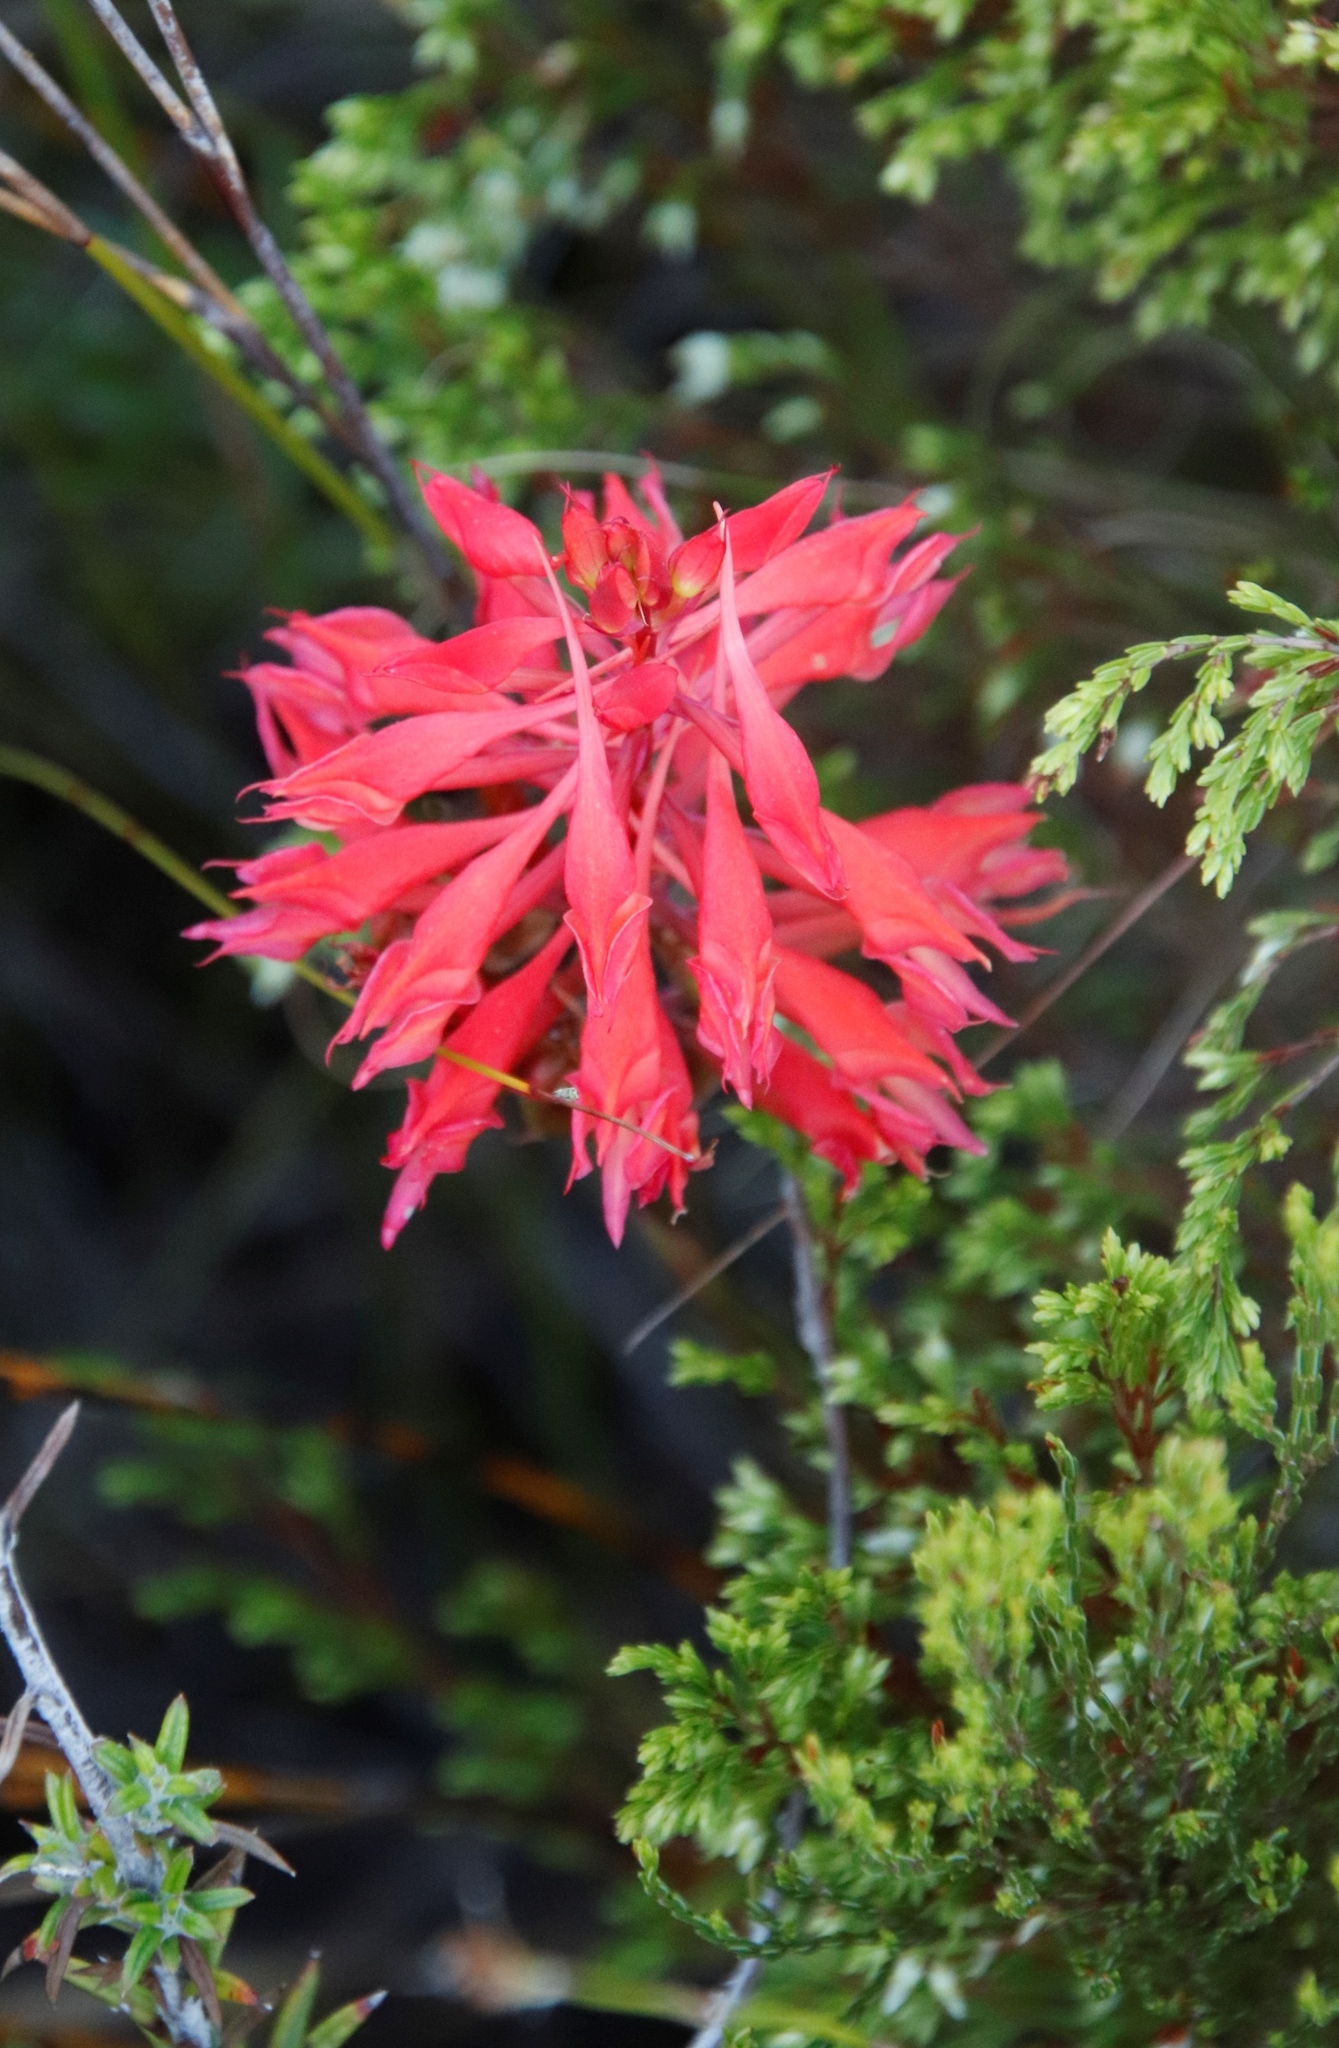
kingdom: Plantae
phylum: Tracheophyta
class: Liliopsida
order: Asparagales
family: Orchidaceae
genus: Disa
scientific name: Disa ferruginea
